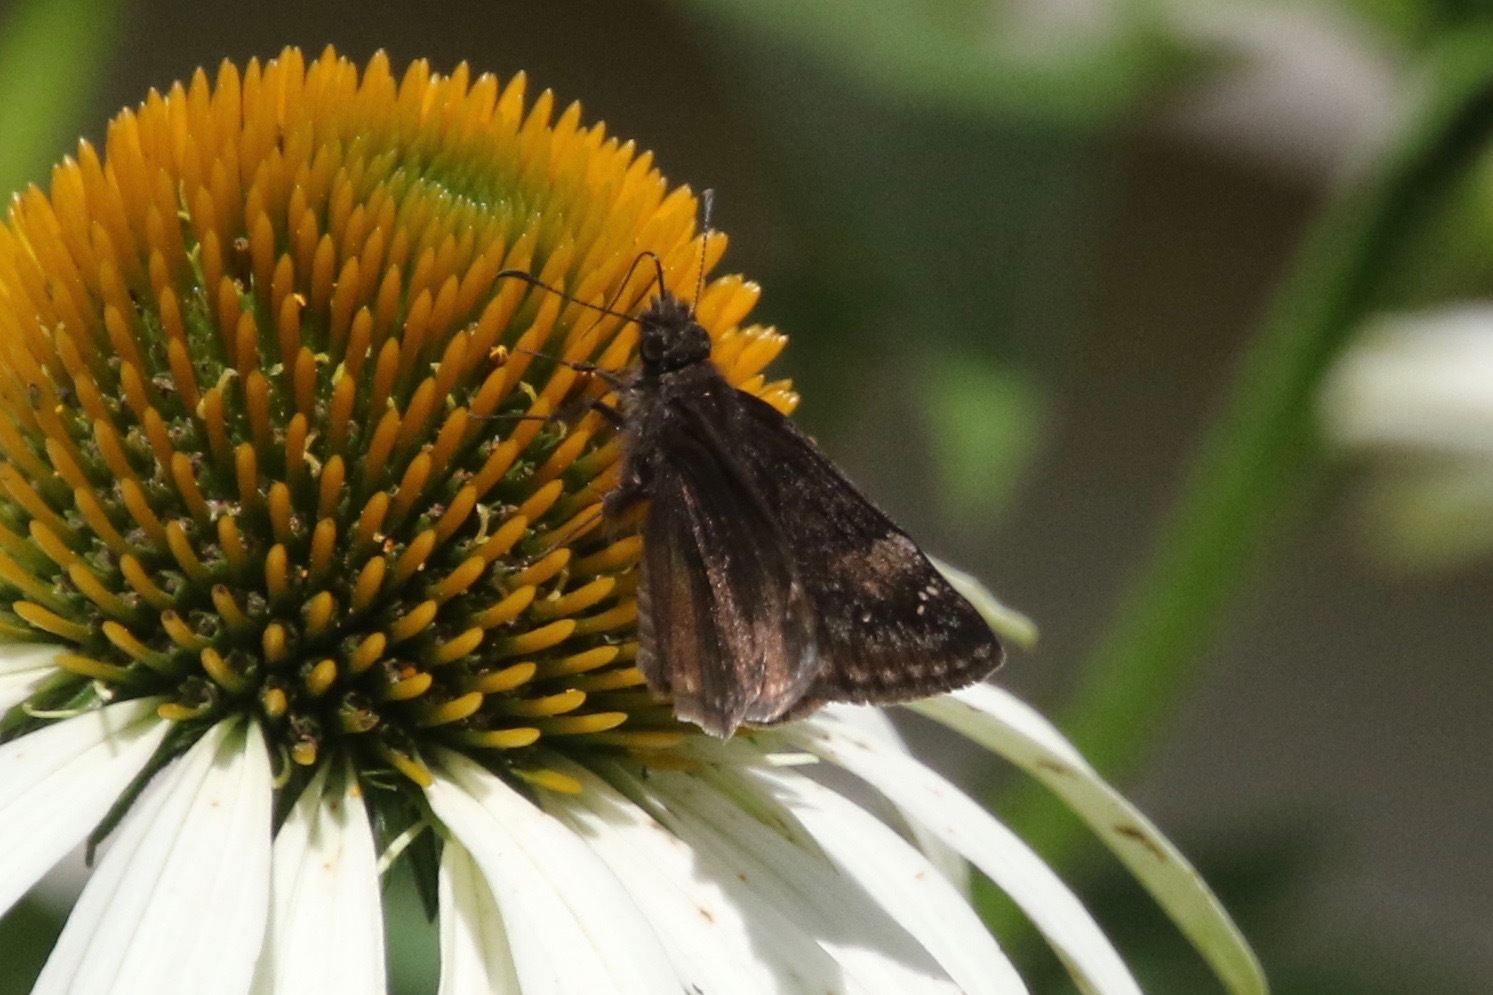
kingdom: Animalia
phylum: Arthropoda
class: Insecta
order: Lepidoptera
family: Hesperiidae
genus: Erynnis
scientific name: Erynnis baptisiae
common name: Wild indigo duskywing
